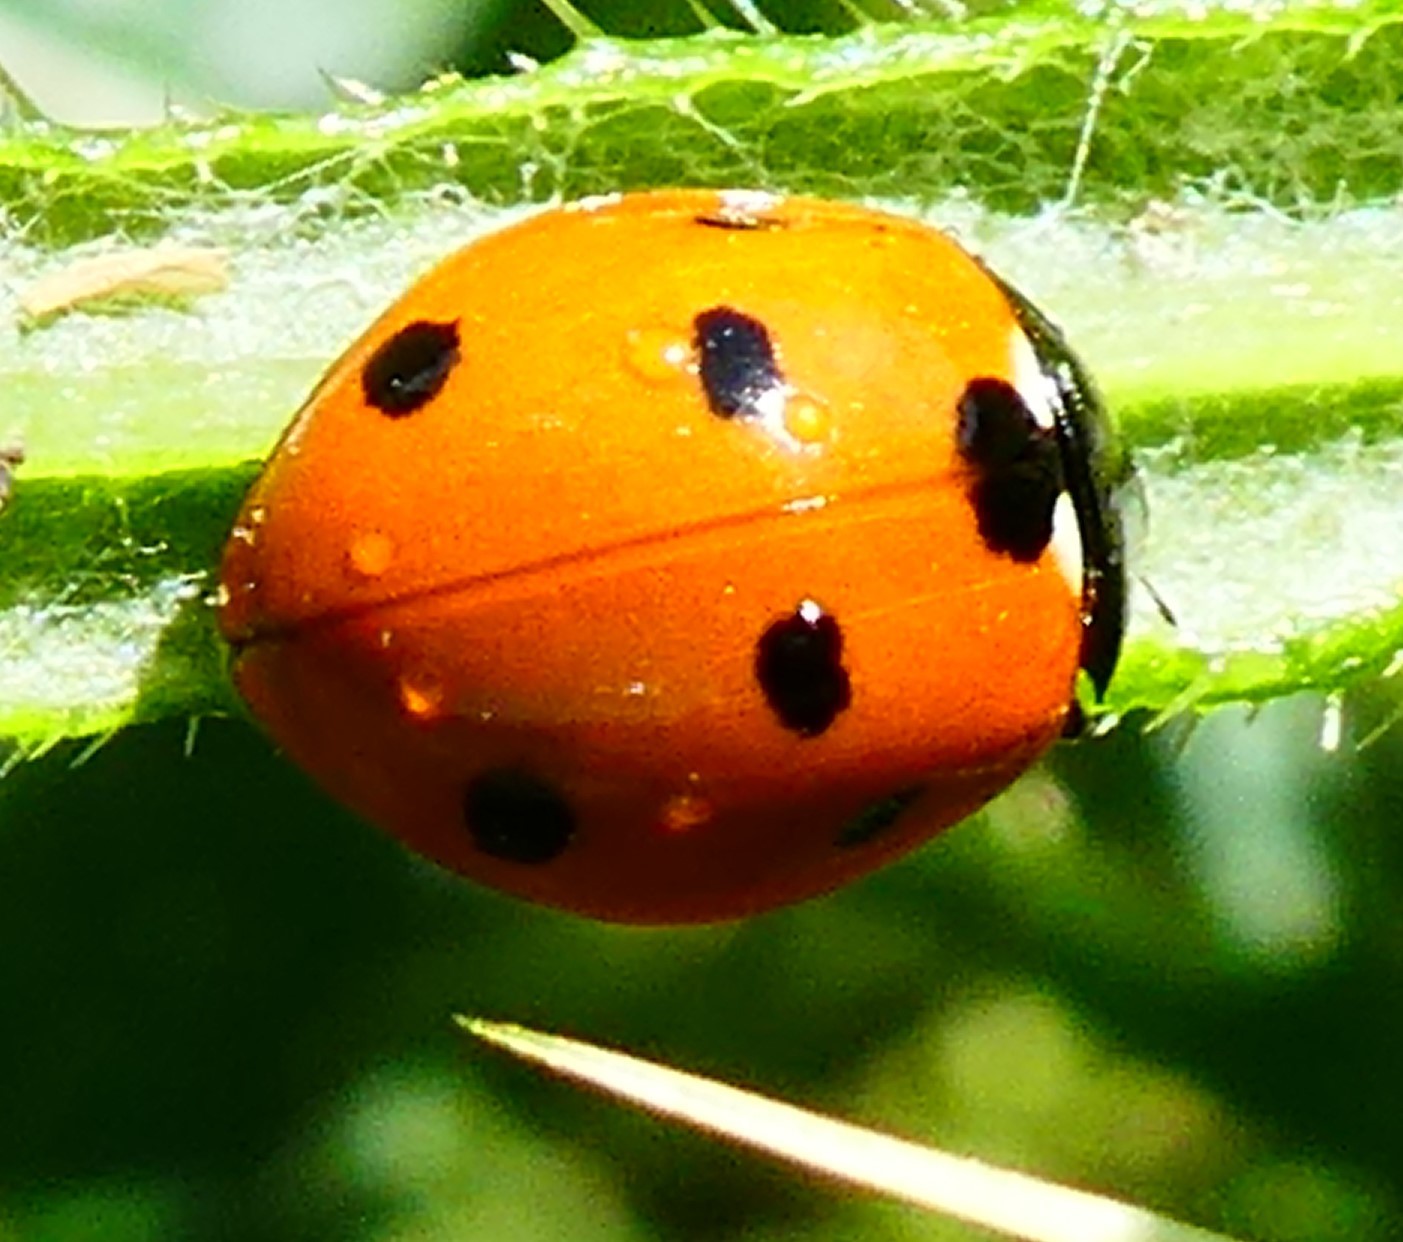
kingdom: Animalia
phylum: Arthropoda
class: Insecta
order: Coleoptera
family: Coccinellidae
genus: Coccinella
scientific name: Coccinella septempunctata
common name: Sevenspotted lady beetle
